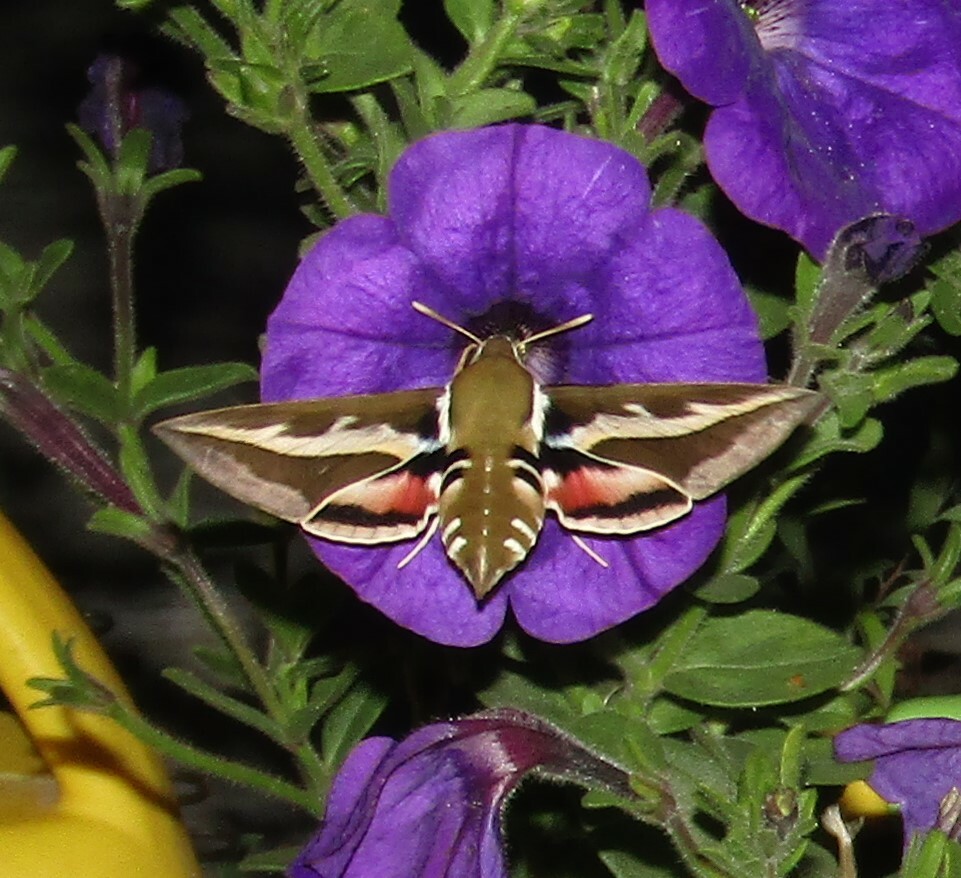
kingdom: Animalia
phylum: Arthropoda
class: Insecta
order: Lepidoptera
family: Sphingidae
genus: Hyles
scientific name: Hyles gallii
